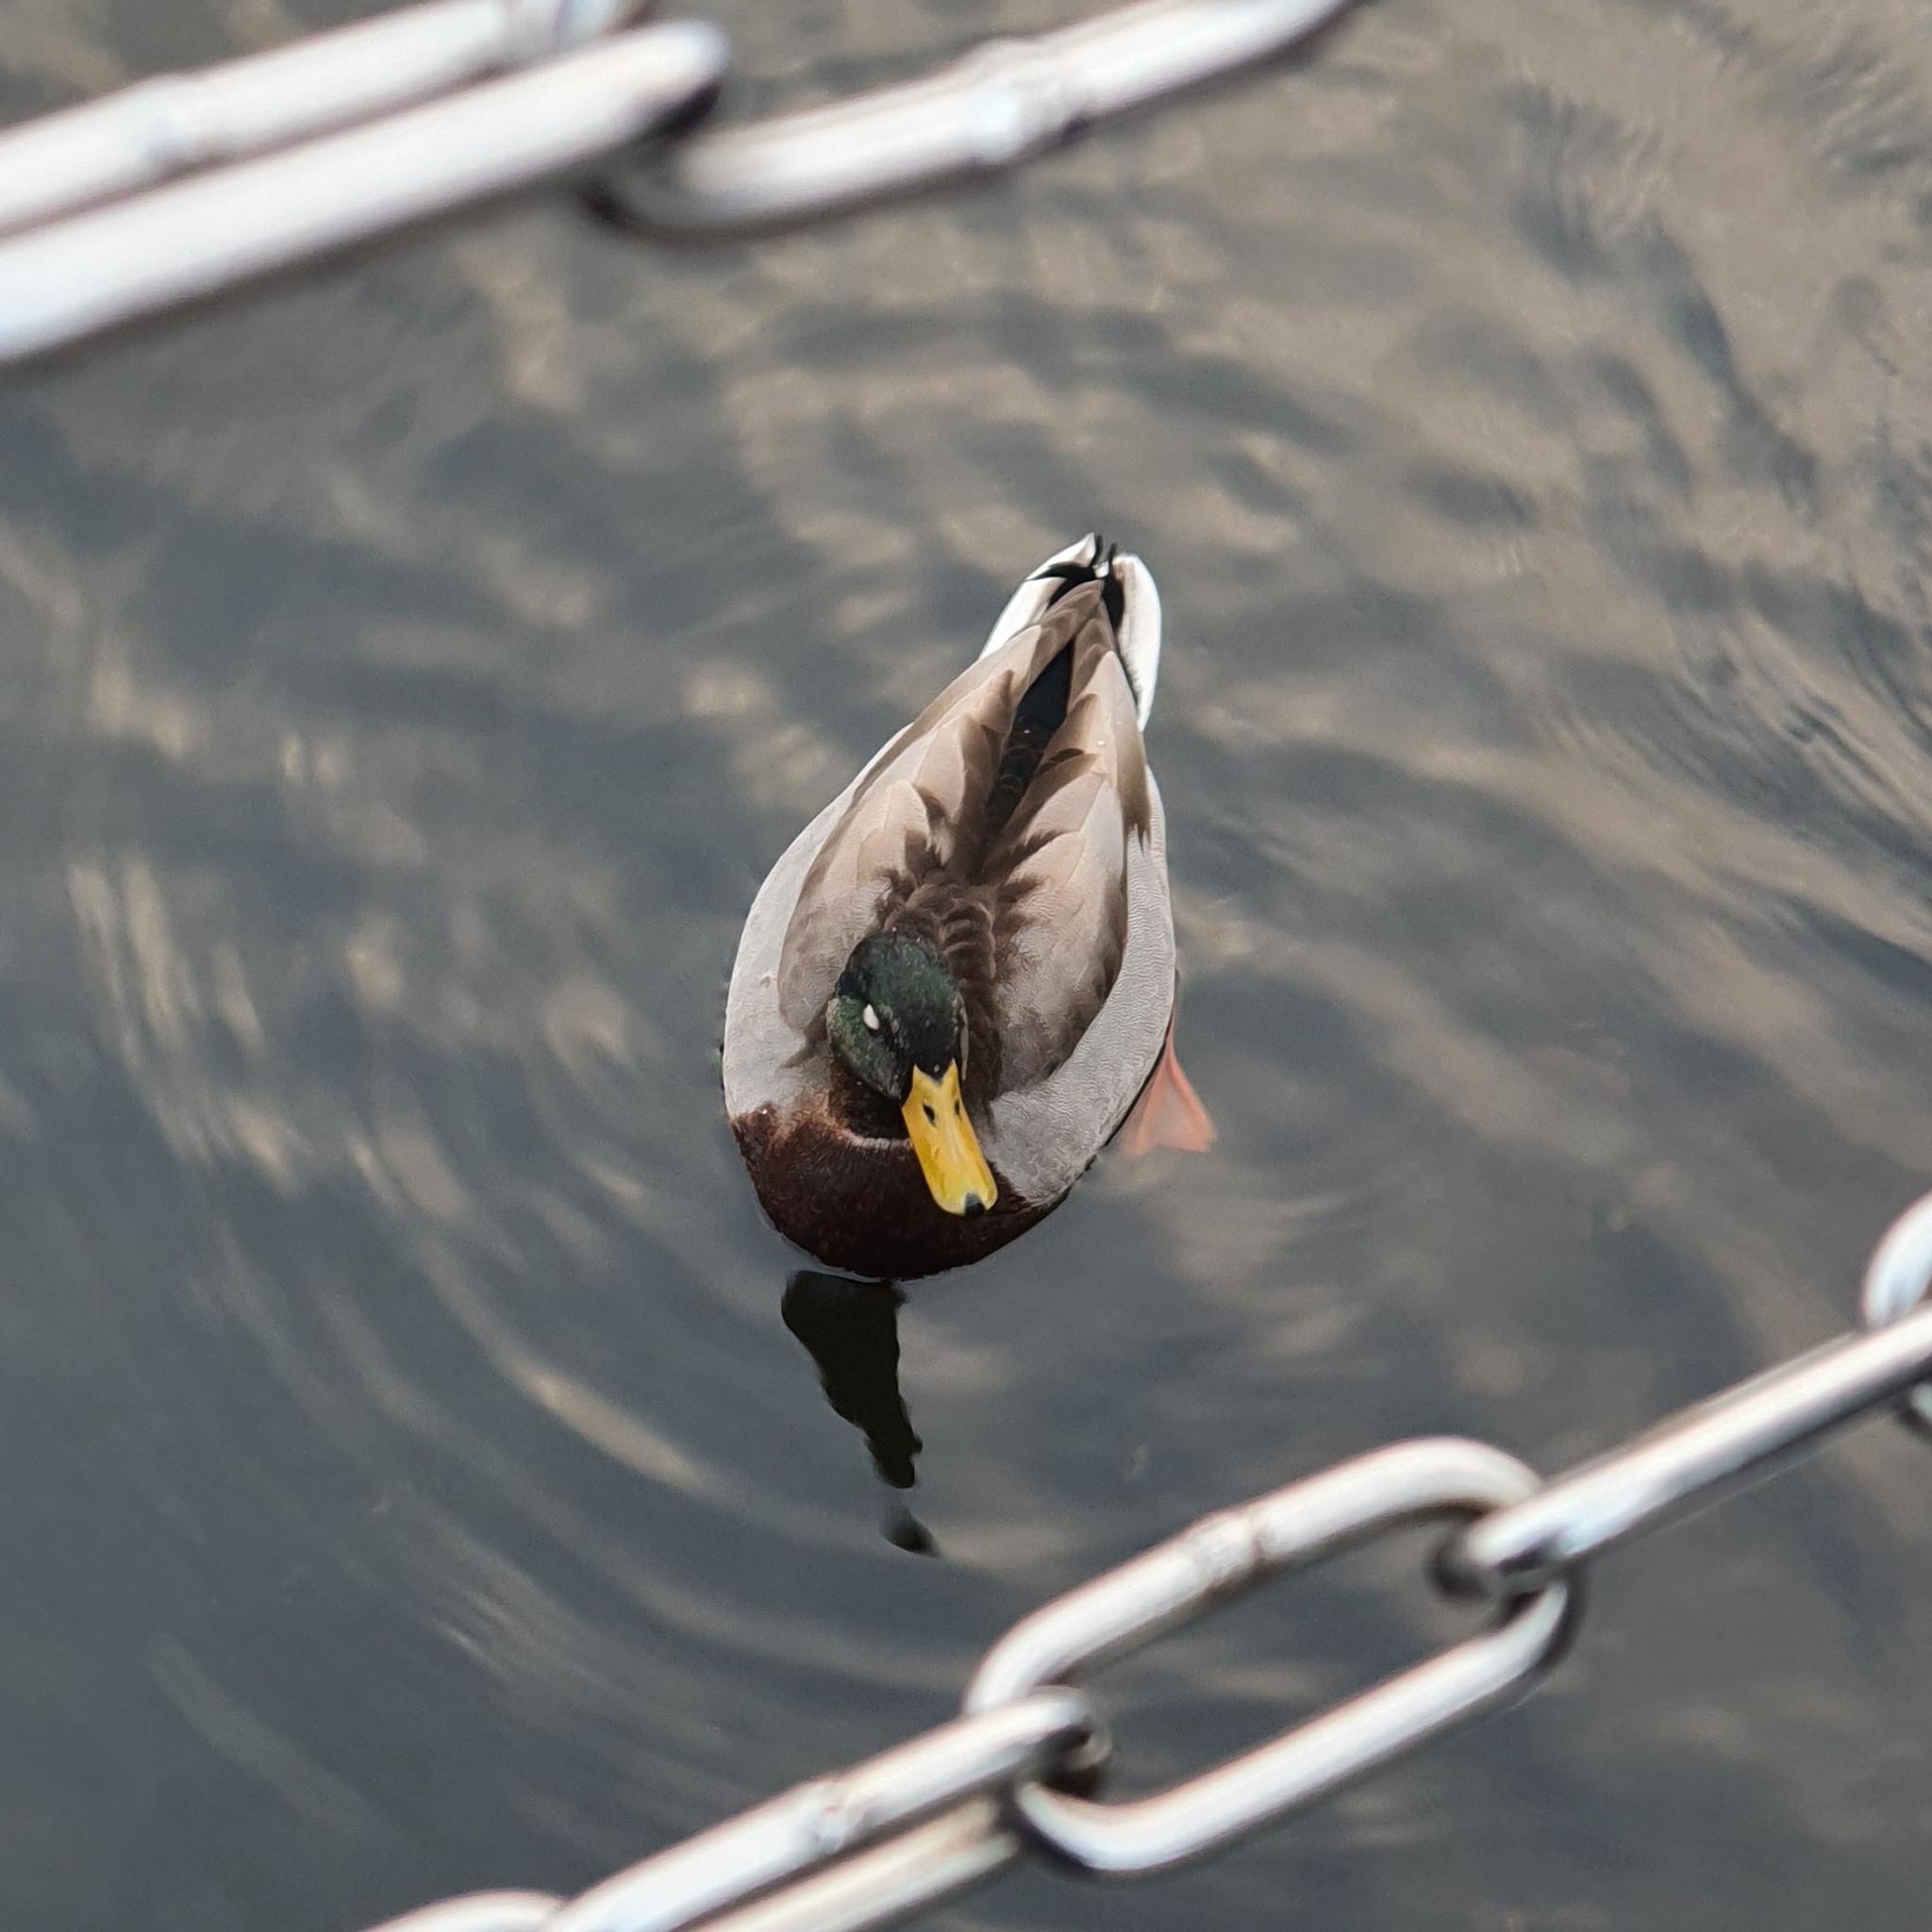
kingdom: Animalia
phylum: Chordata
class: Aves
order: Anseriformes
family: Anatidae
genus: Anas
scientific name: Anas platyrhynchos
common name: Mallard
